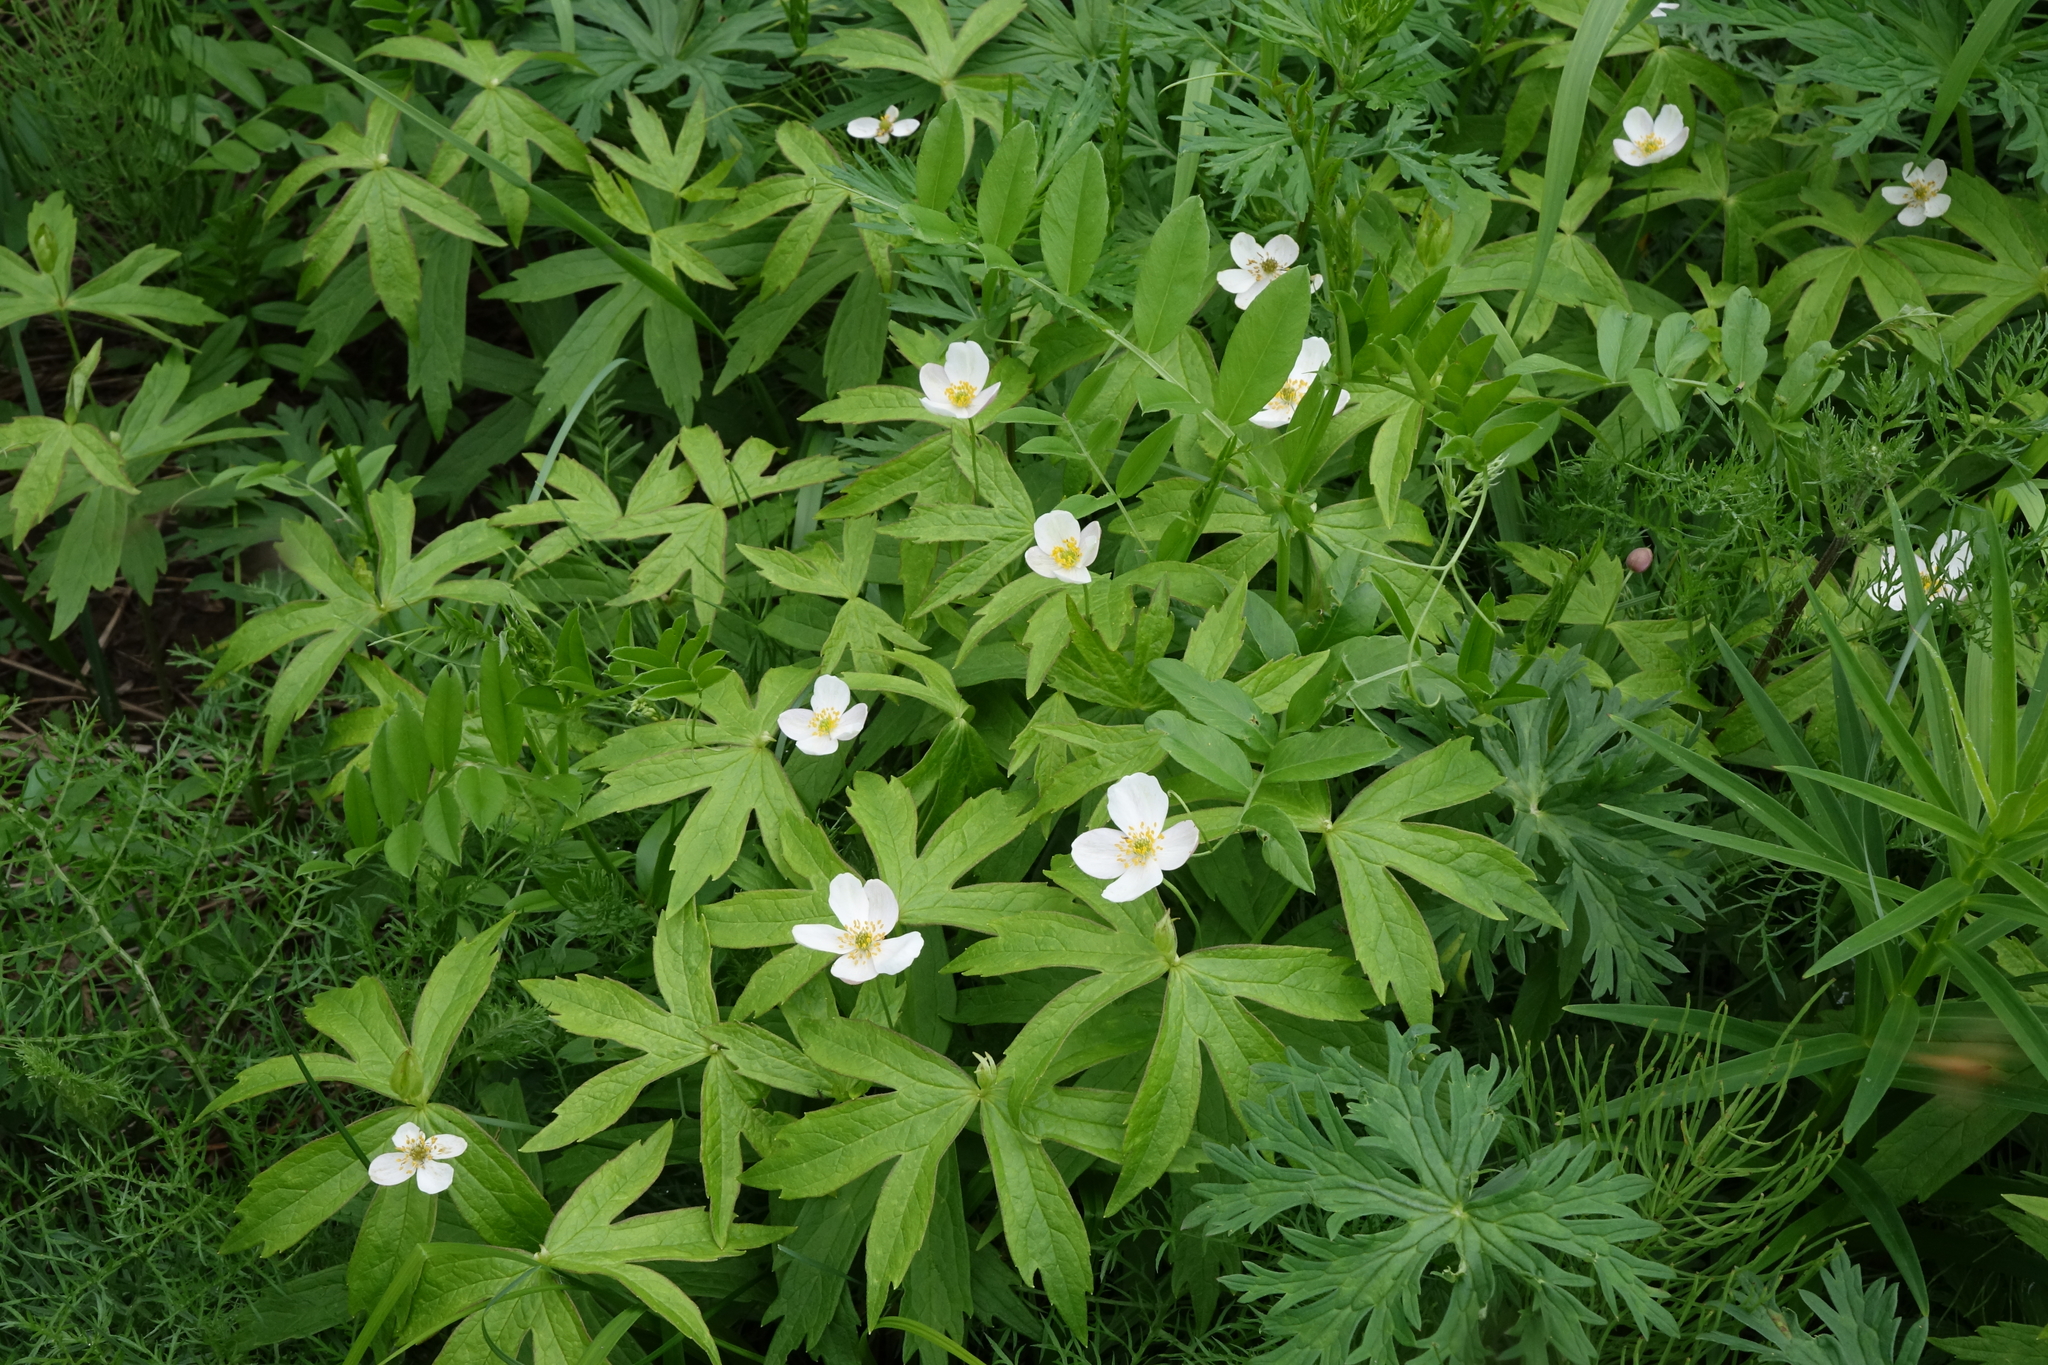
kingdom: Plantae
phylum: Tracheophyta
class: Magnoliopsida
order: Ranunculales
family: Ranunculaceae
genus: Anemonastrum
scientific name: Anemonastrum dichotomum
